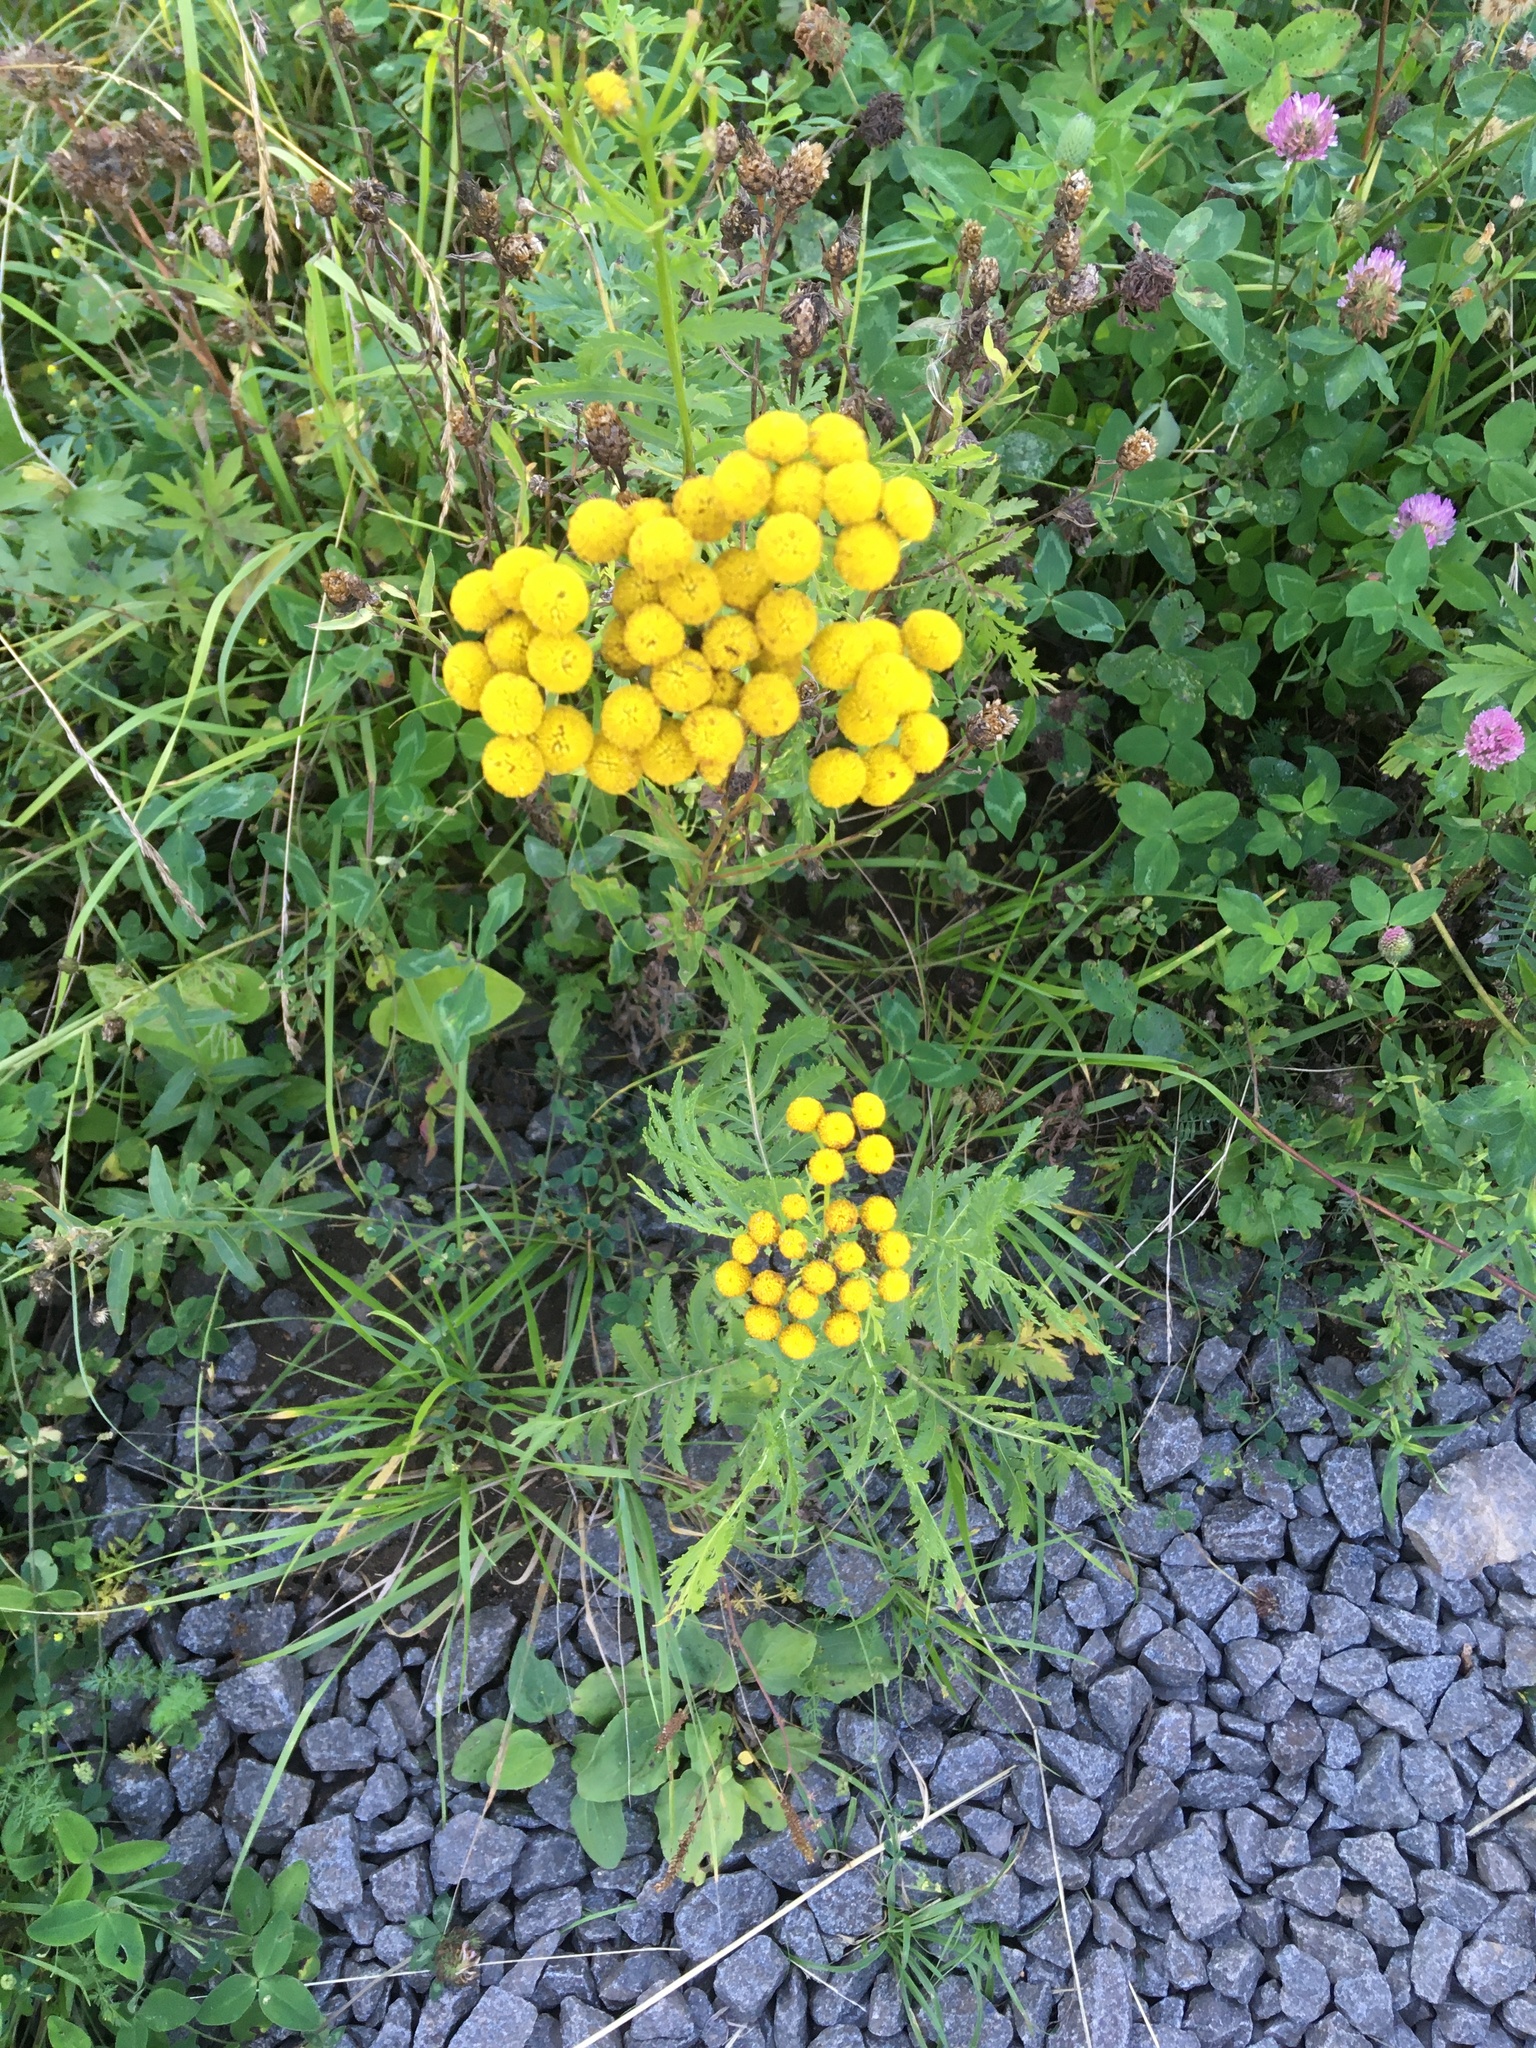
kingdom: Plantae
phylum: Tracheophyta
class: Magnoliopsida
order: Asterales
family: Asteraceae
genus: Tanacetum
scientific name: Tanacetum vulgare
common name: Common tansy
